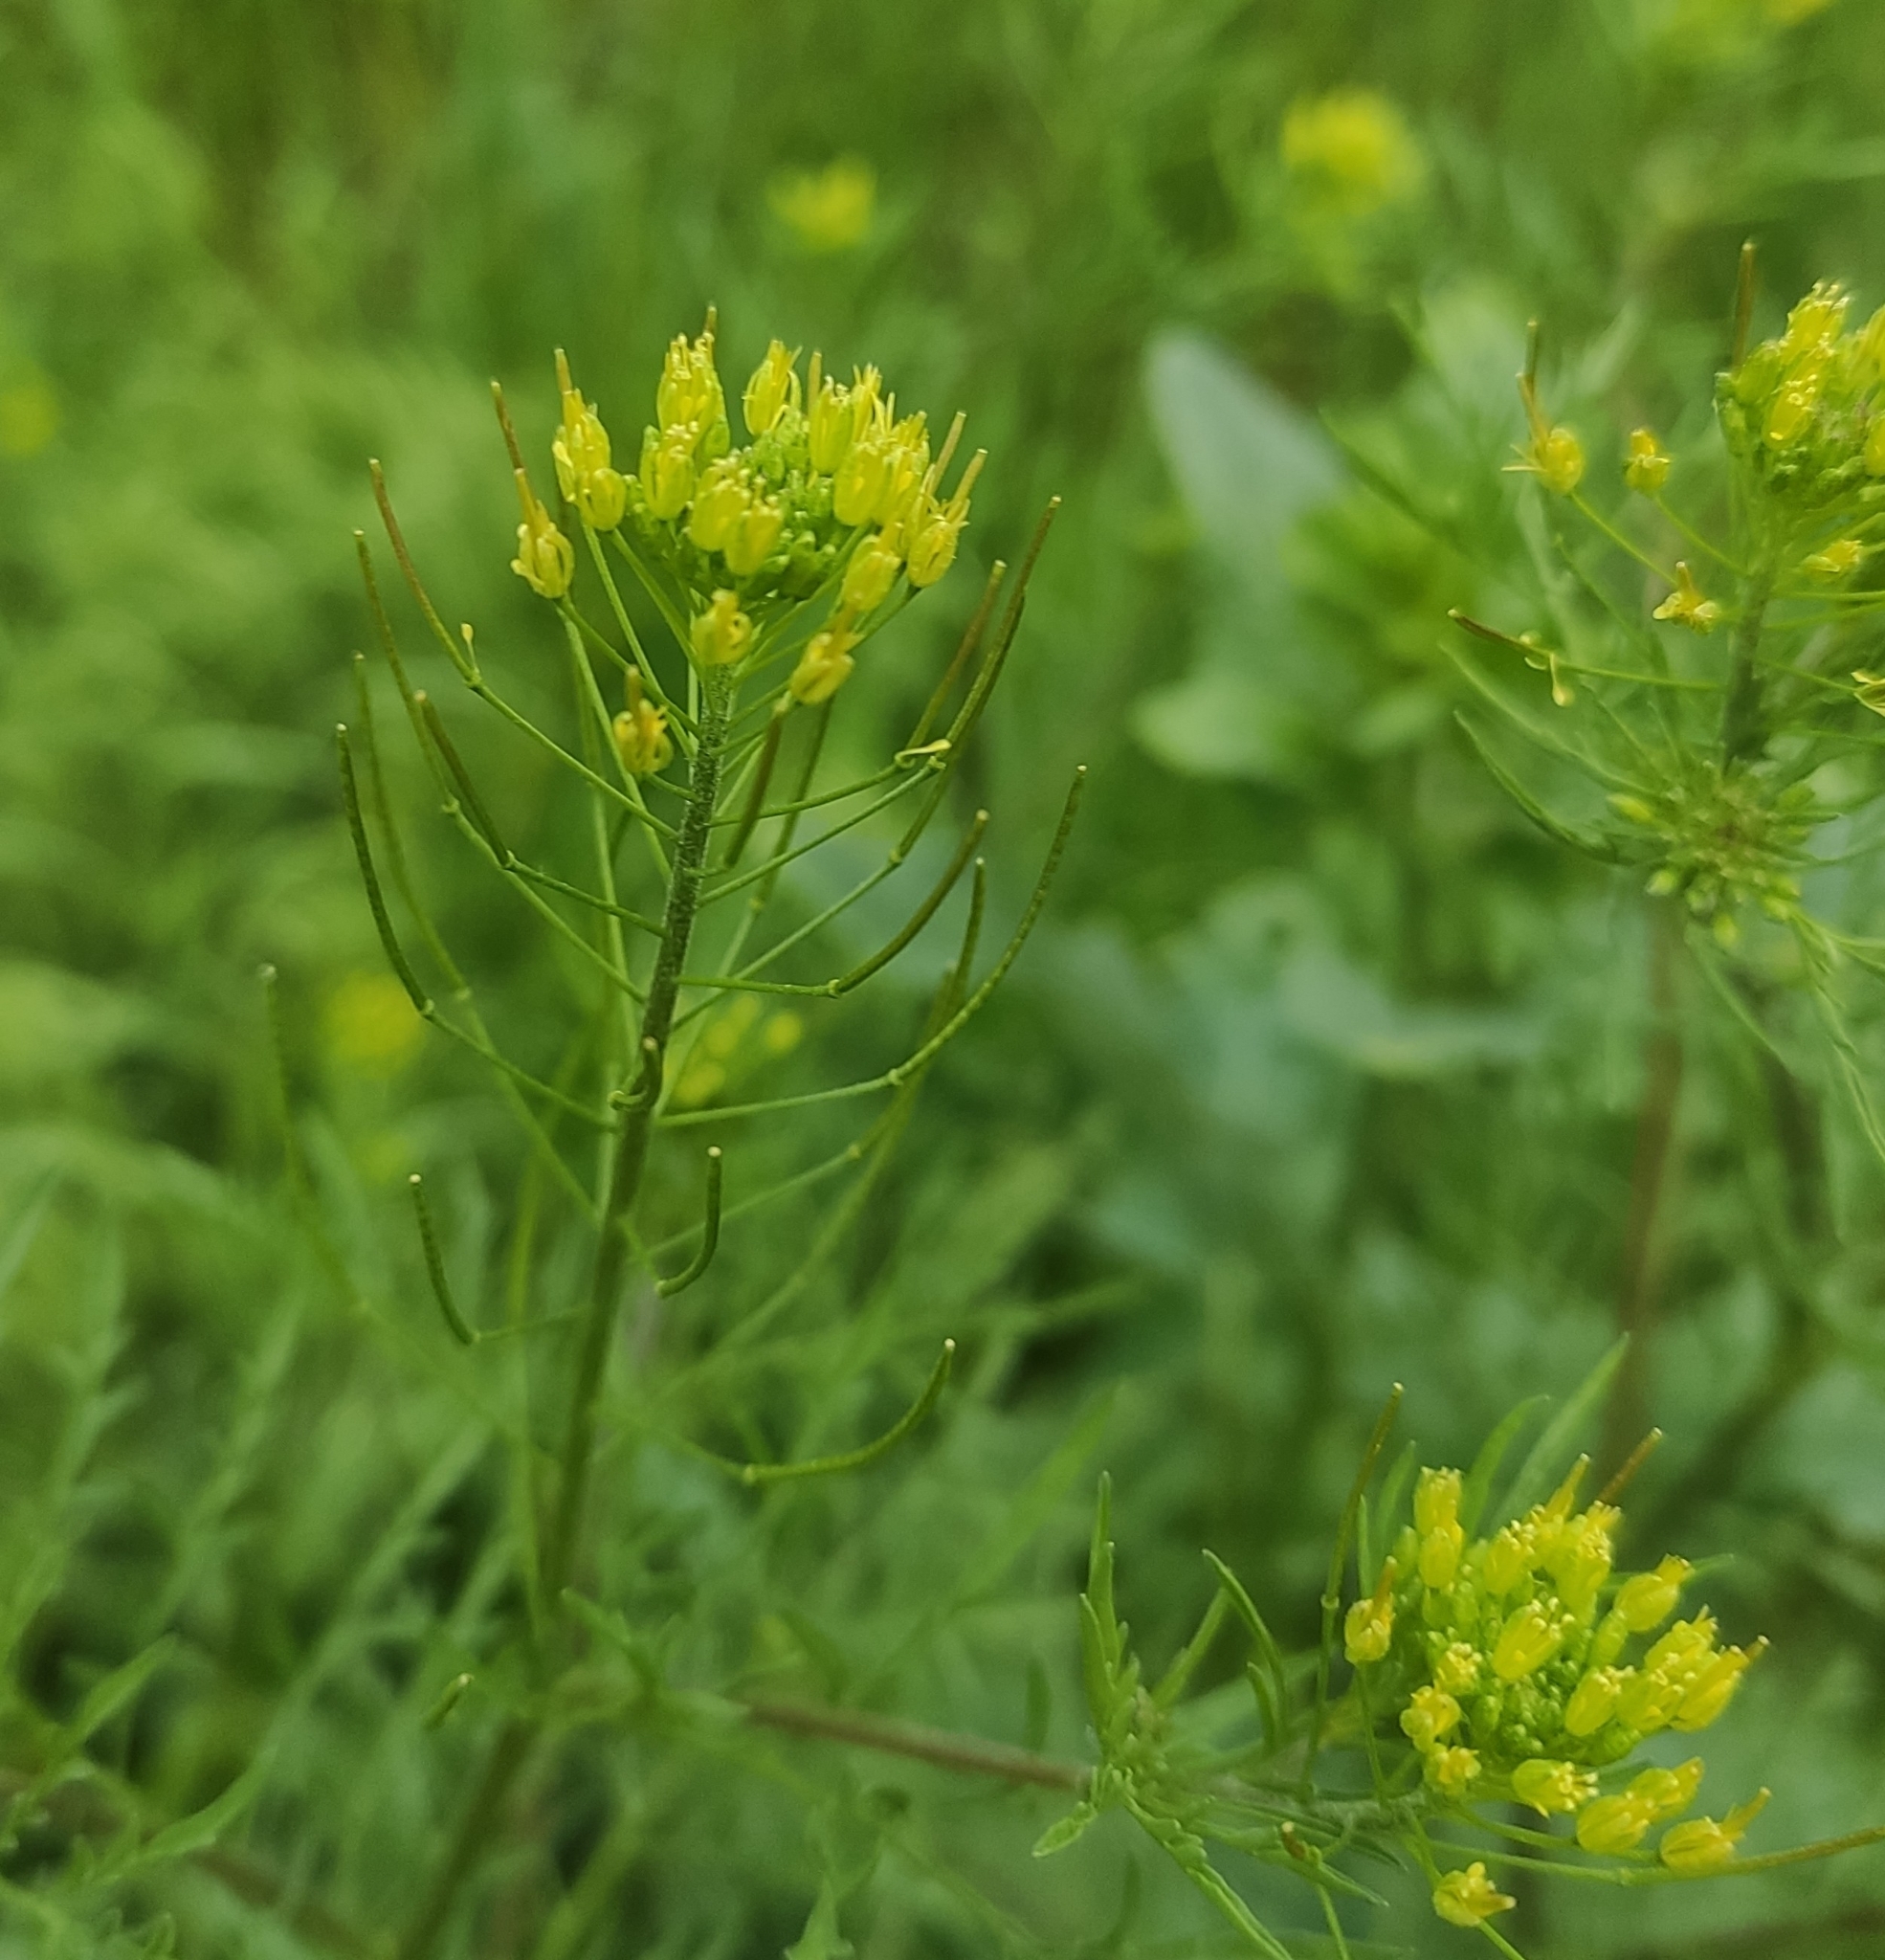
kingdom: Plantae
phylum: Tracheophyta
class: Magnoliopsida
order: Brassicales
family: Brassicaceae
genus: Descurainia
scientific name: Descurainia sophia
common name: Flixweed
